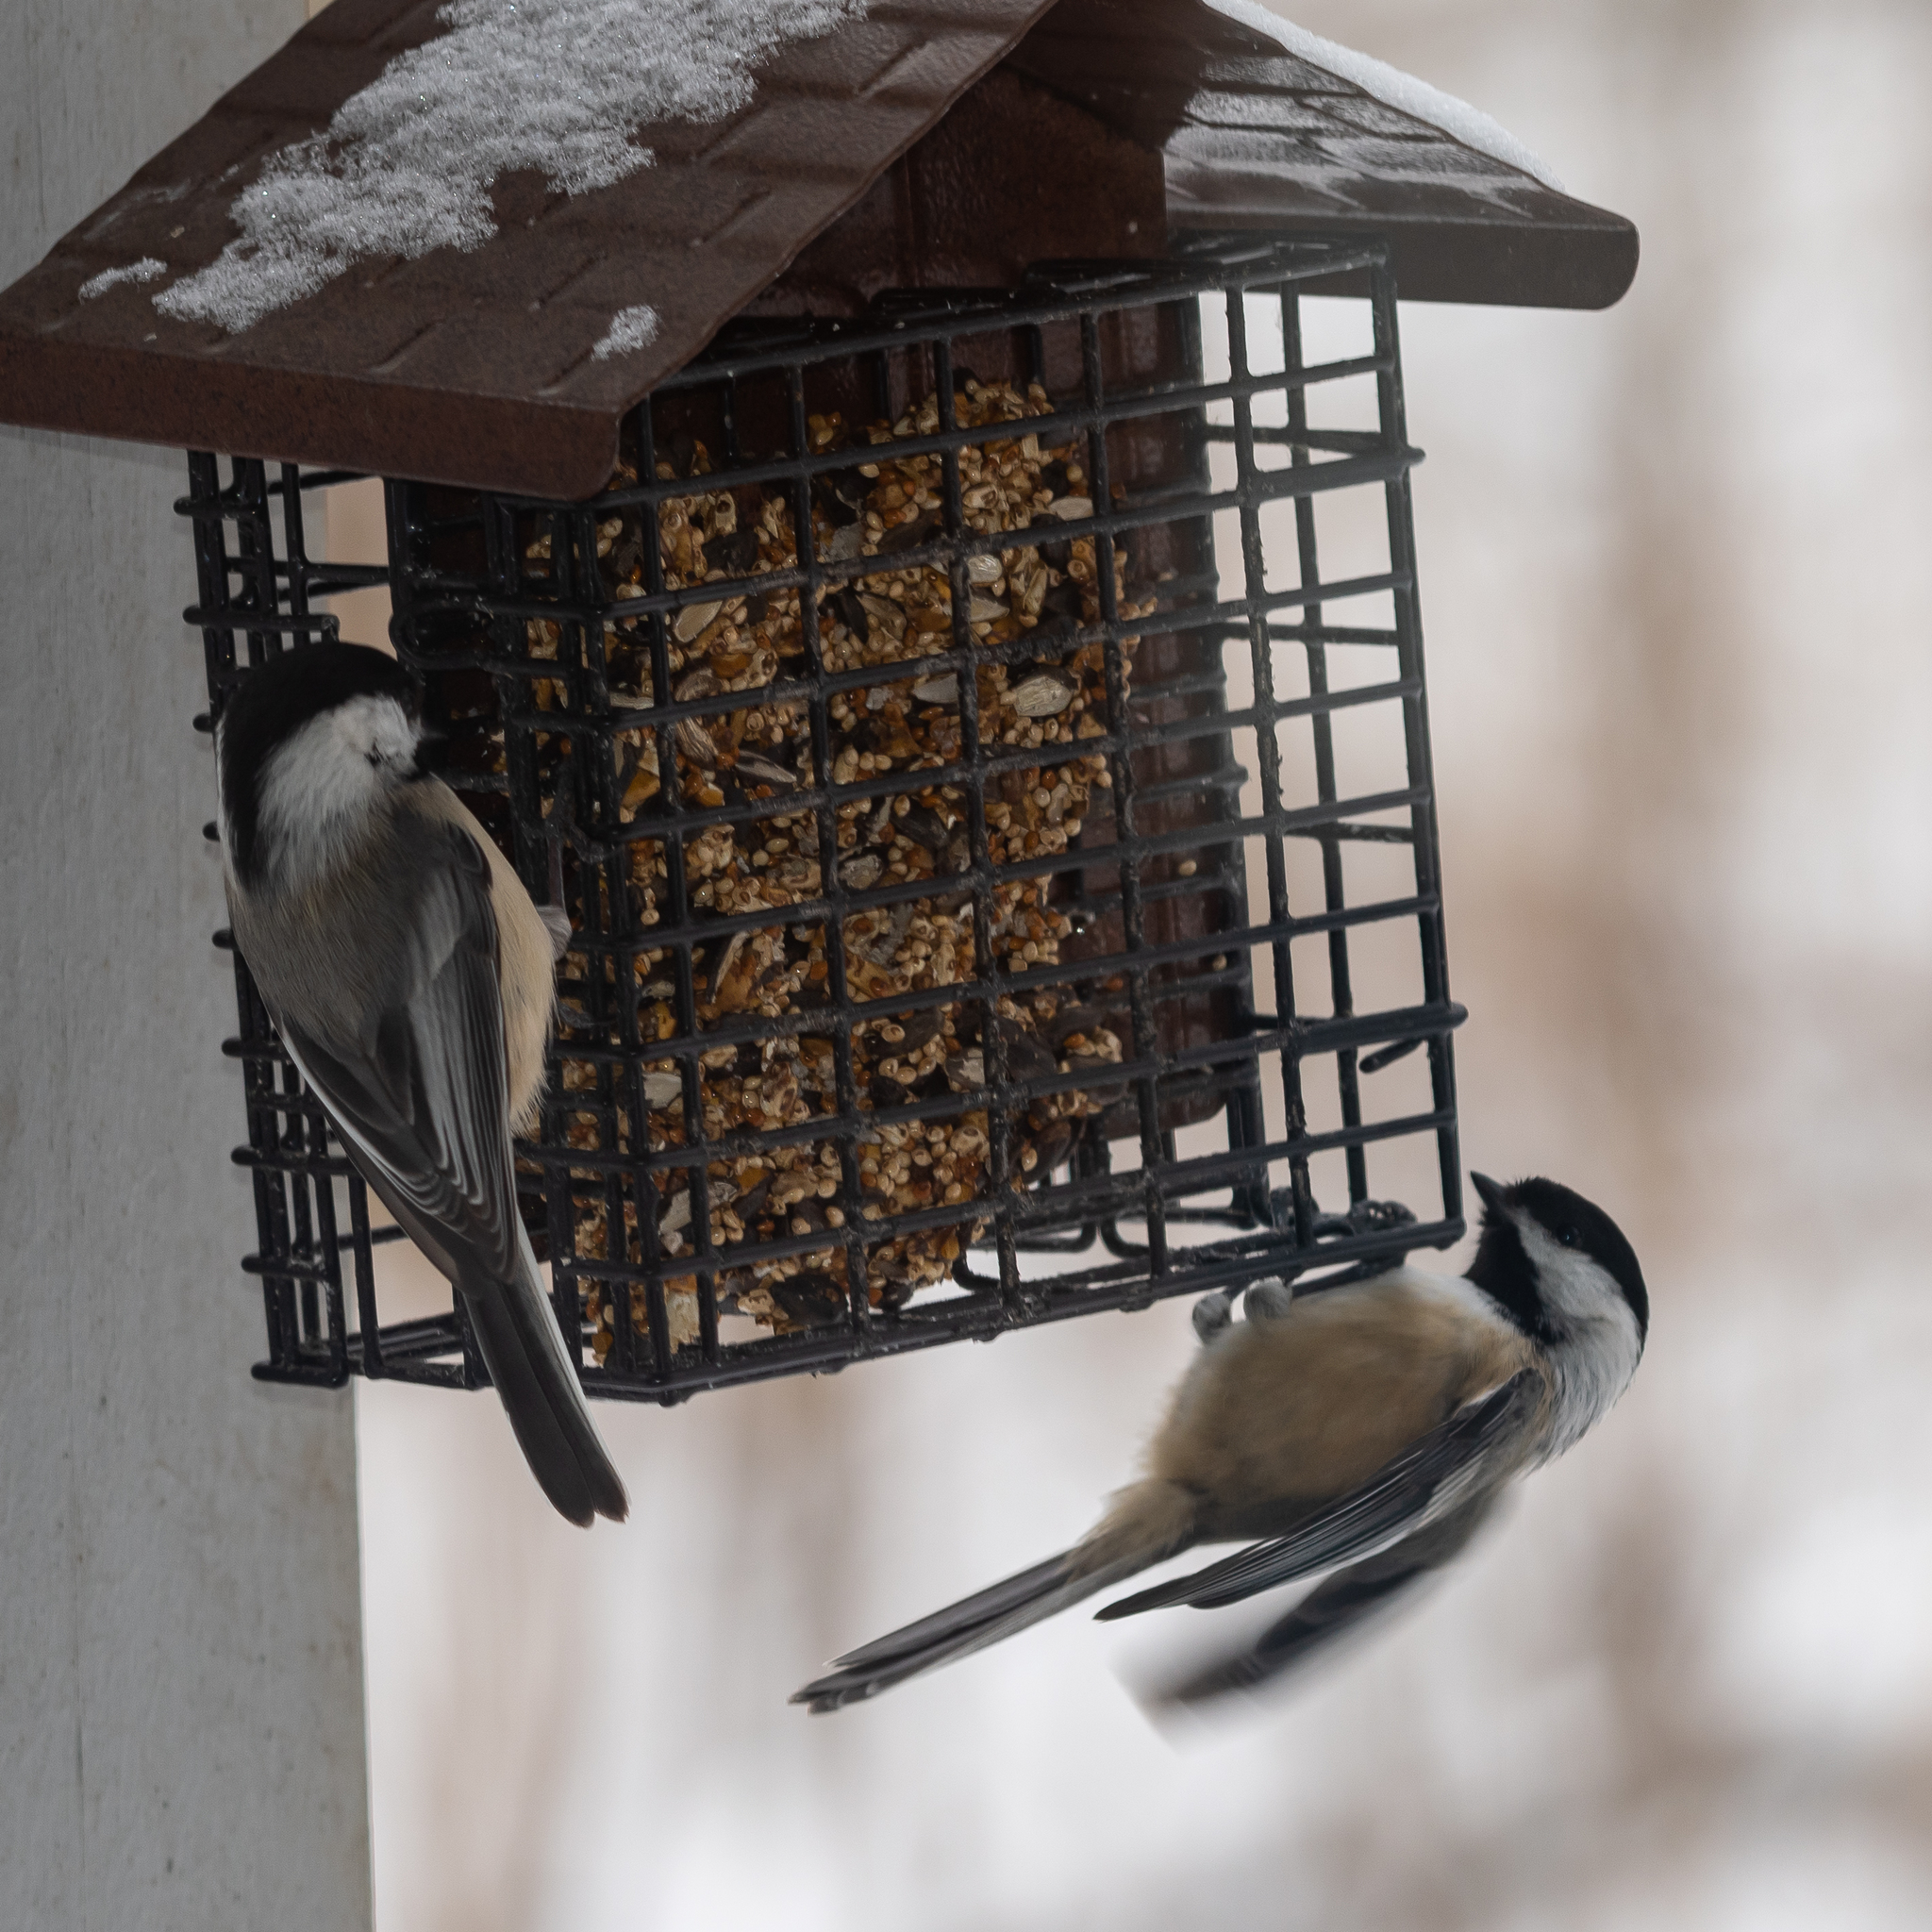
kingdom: Animalia
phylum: Chordata
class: Aves
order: Passeriformes
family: Paridae
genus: Poecile
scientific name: Poecile atricapillus
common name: Black-capped chickadee
